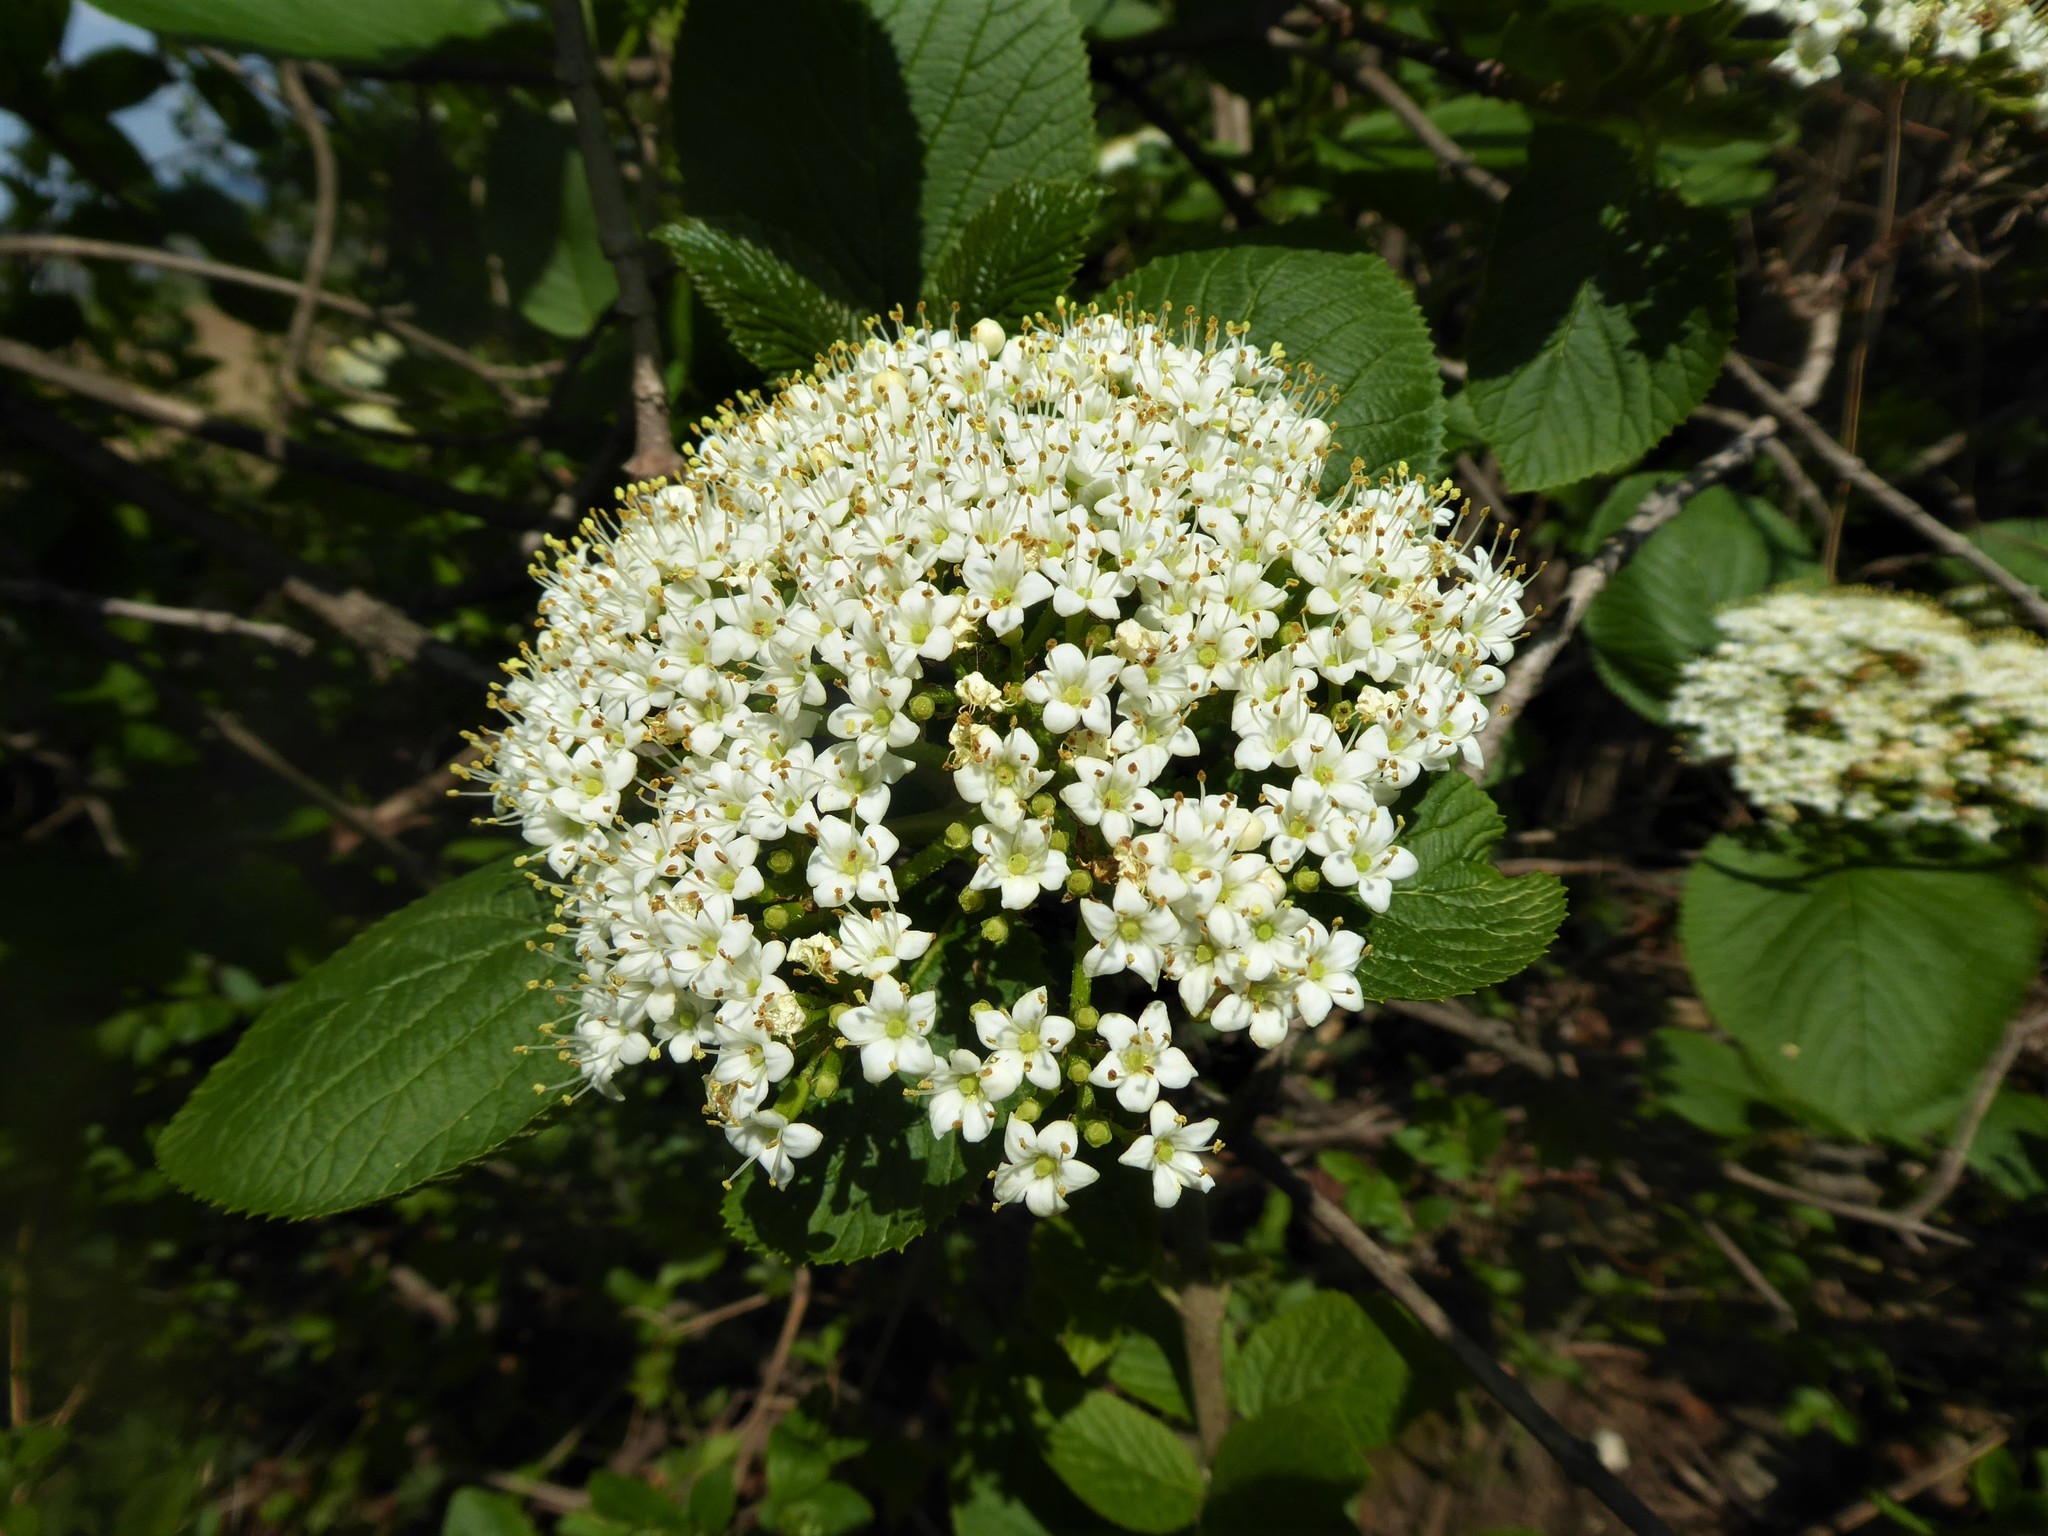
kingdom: Plantae
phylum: Tracheophyta
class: Magnoliopsida
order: Dipsacales
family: Viburnaceae
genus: Viburnum
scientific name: Viburnum lantana
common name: Wayfaring tree
